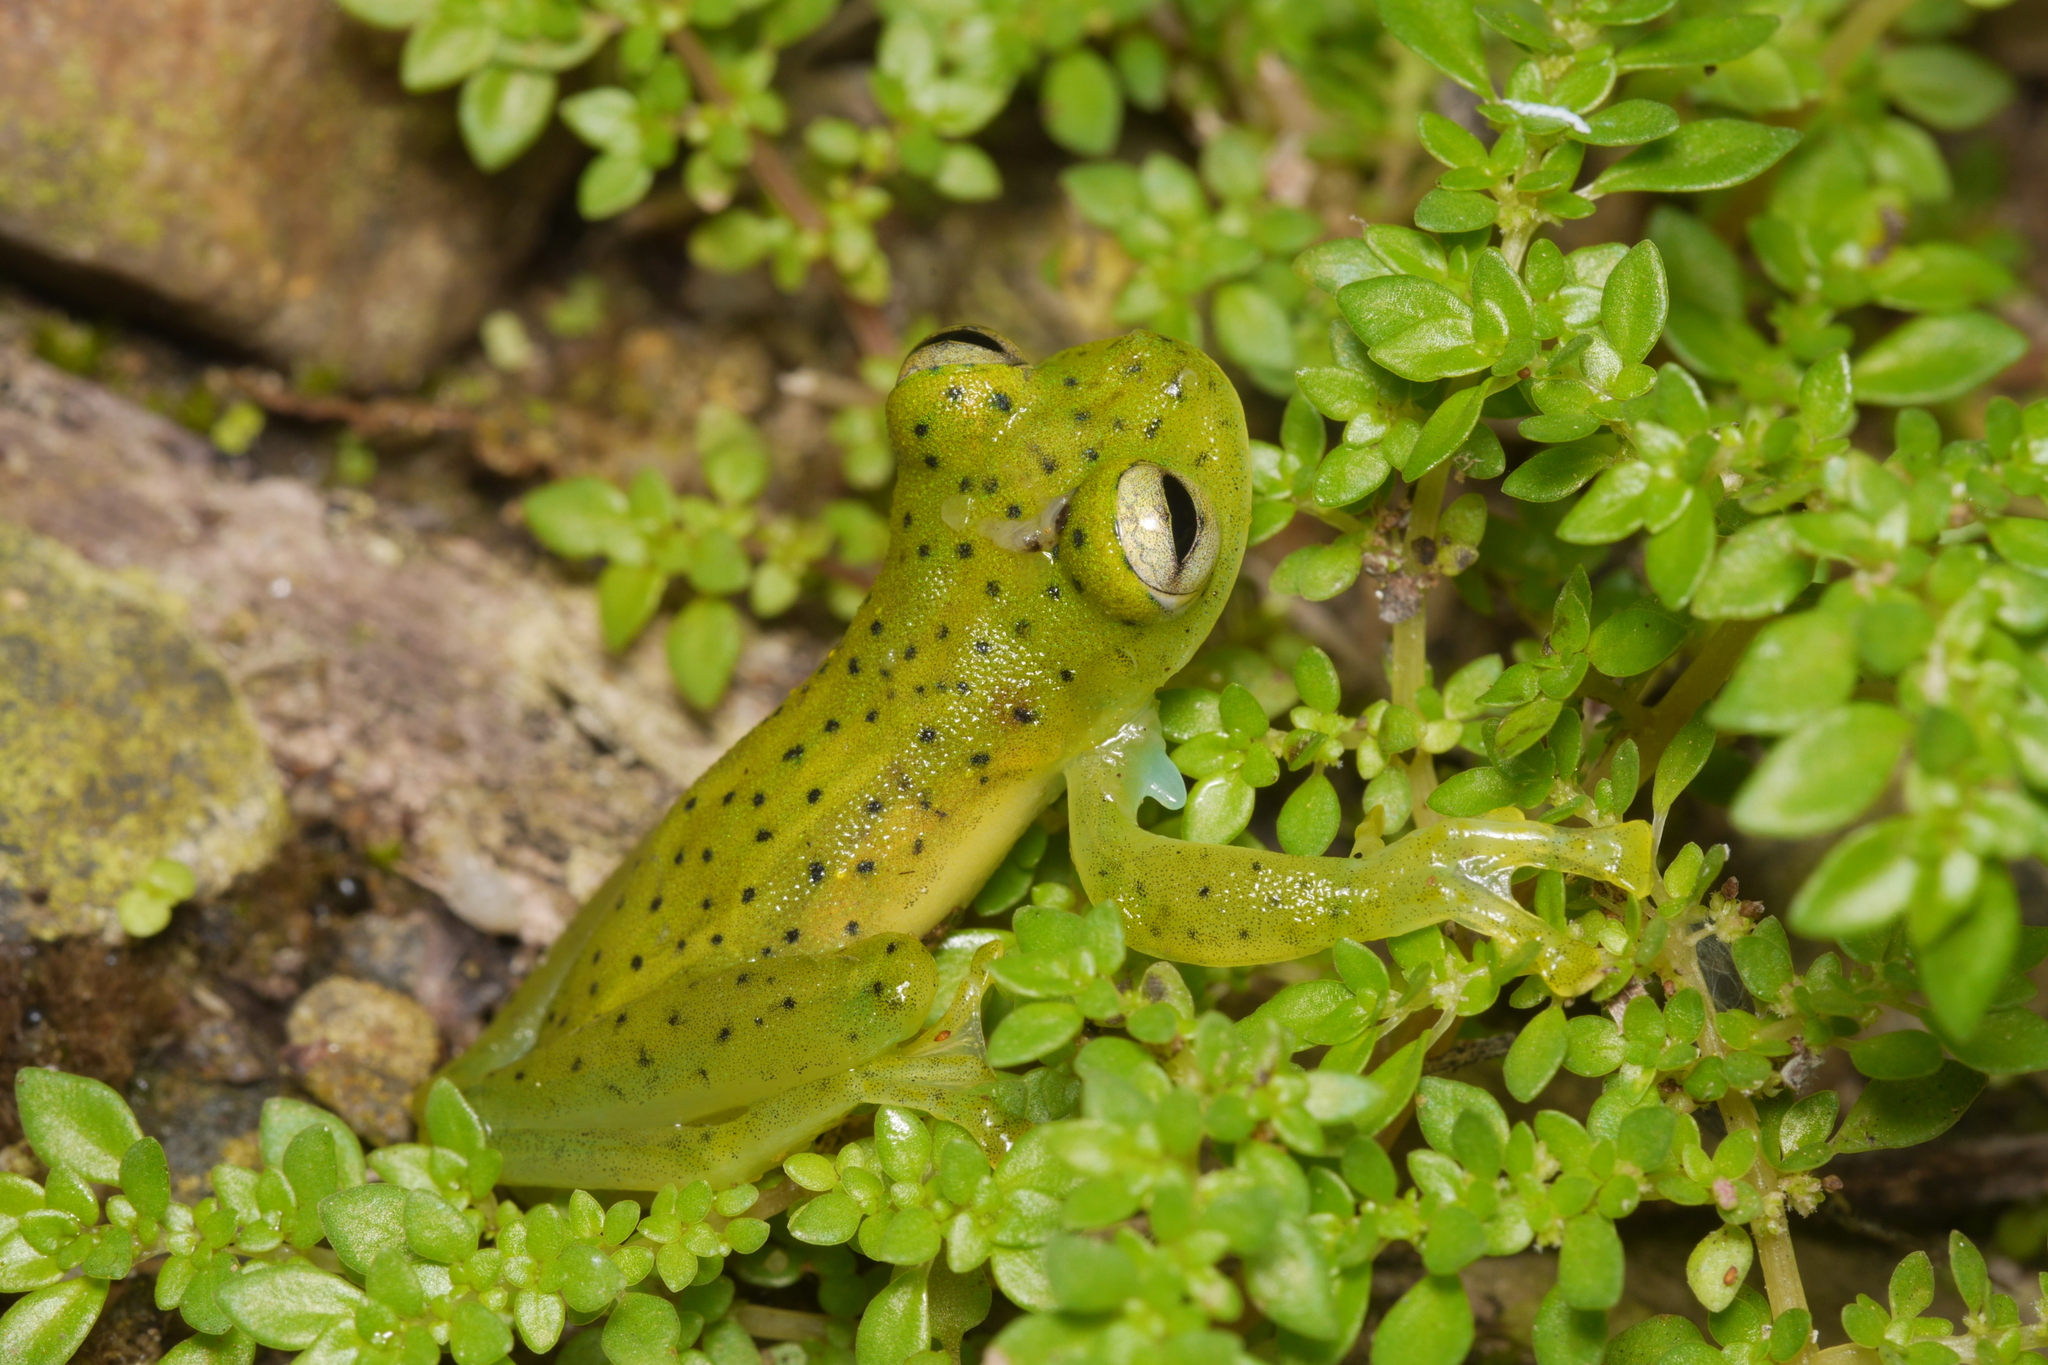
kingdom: Animalia
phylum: Chordata
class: Amphibia
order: Anura
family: Centrolenidae
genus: Espadarana
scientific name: Espadarana prosoblepon
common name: Rana de cristal variable
